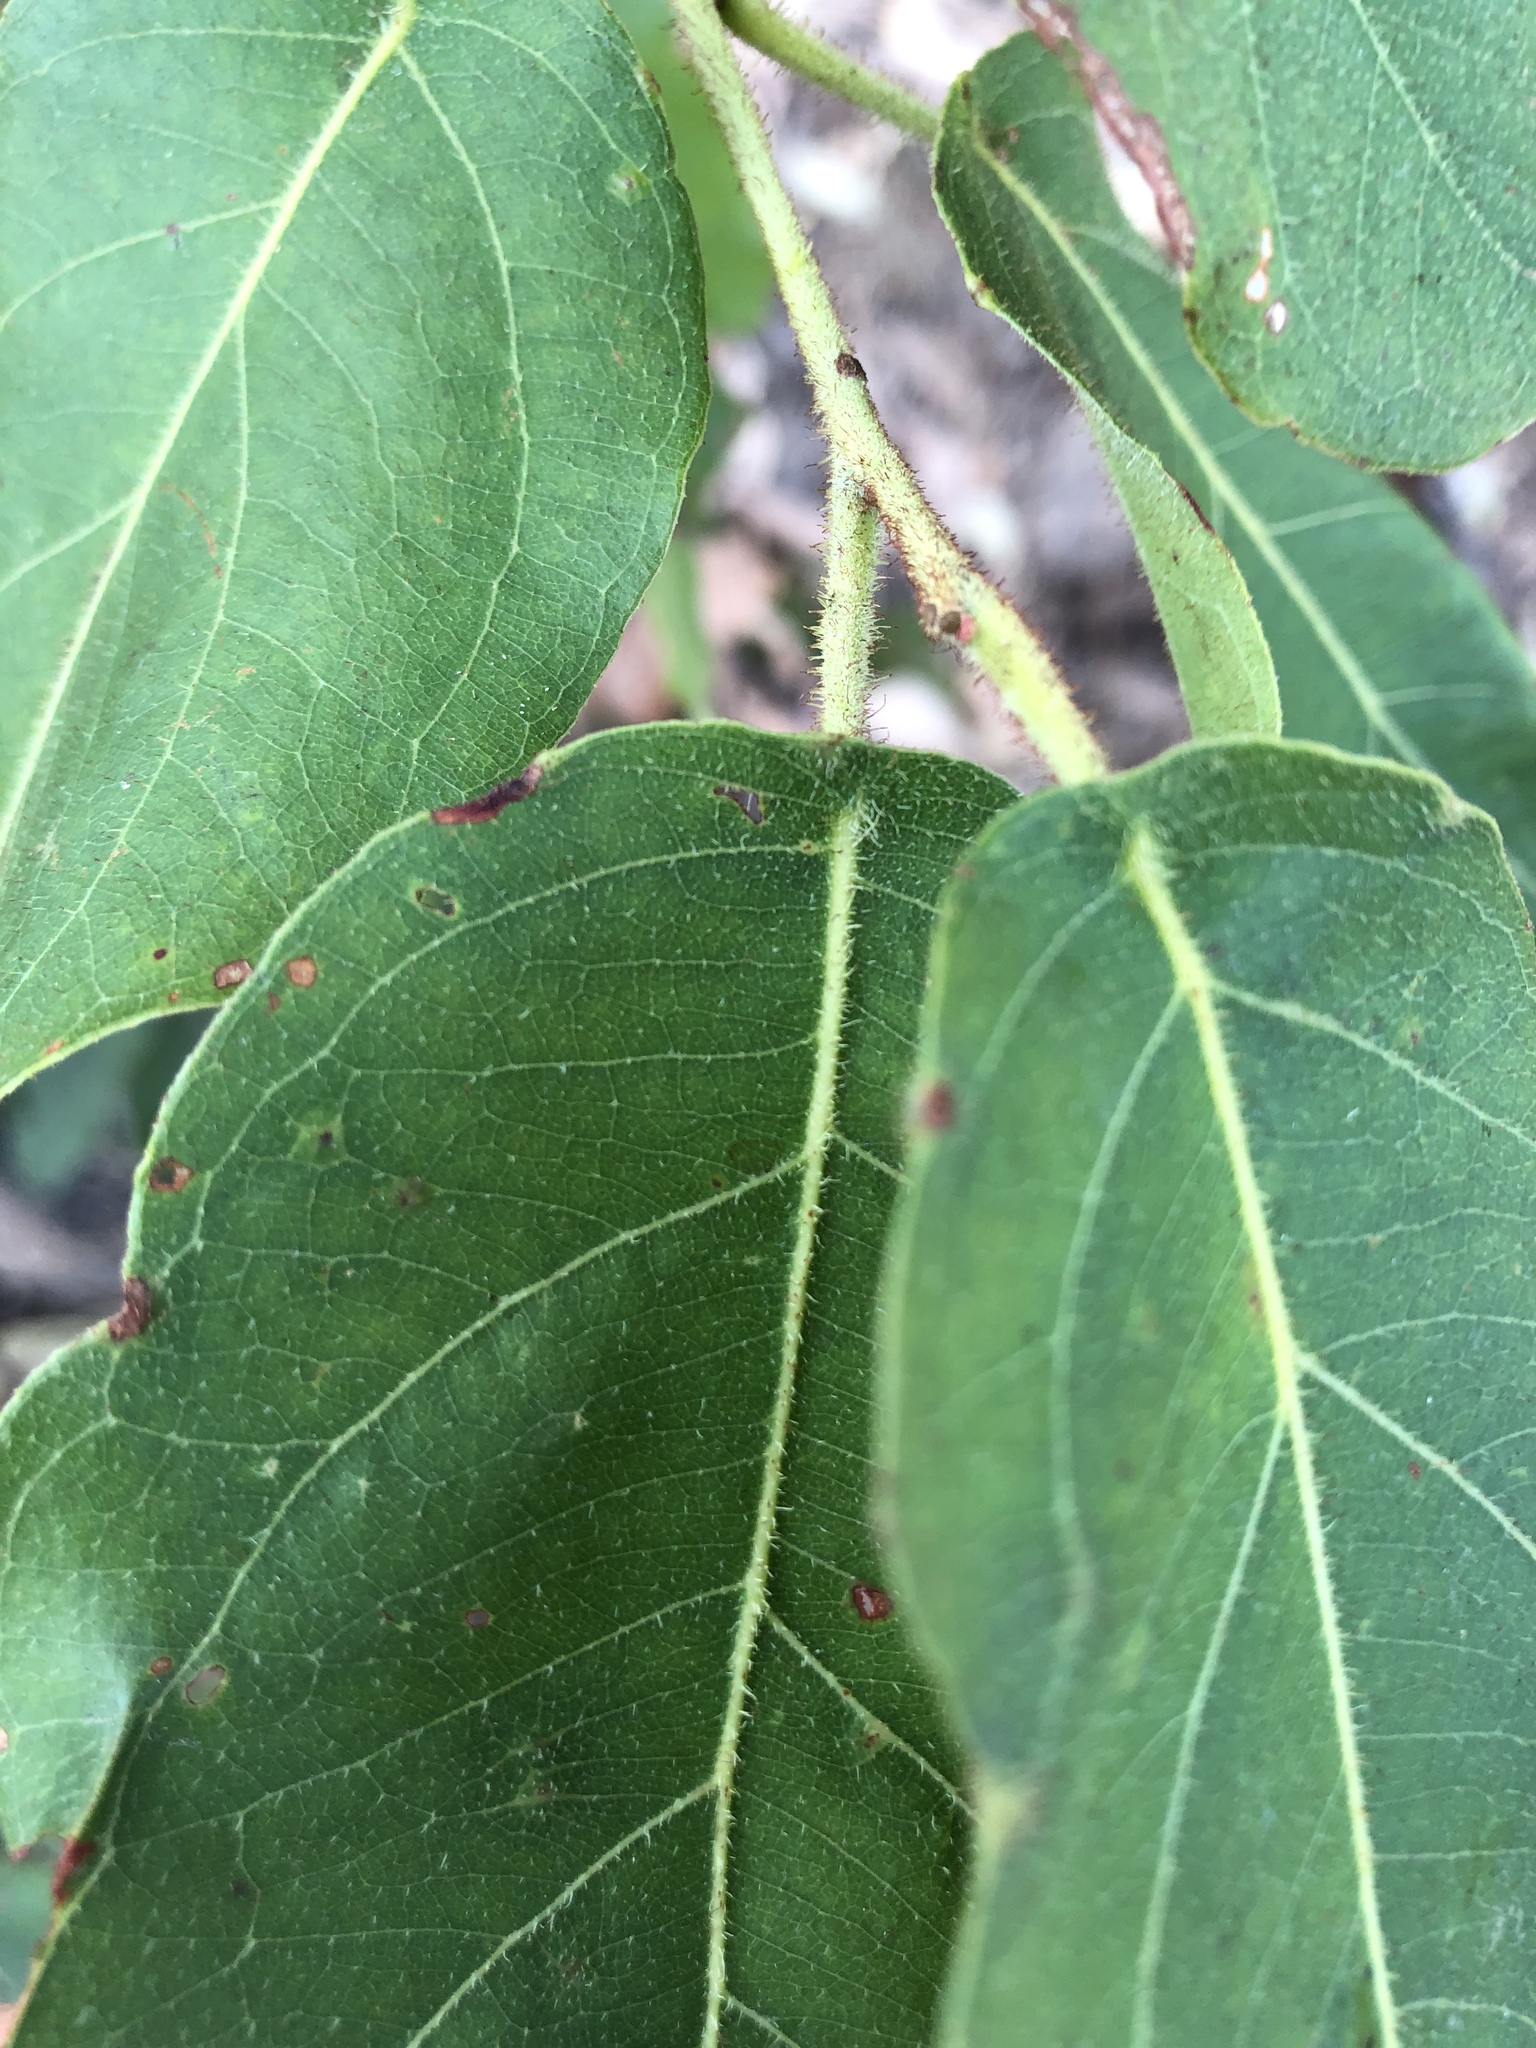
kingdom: Plantae
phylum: Tracheophyta
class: Magnoliopsida
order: Myrtales
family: Myrtaceae
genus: Corymbia
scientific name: Corymbia torelliana
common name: Cadaghi
